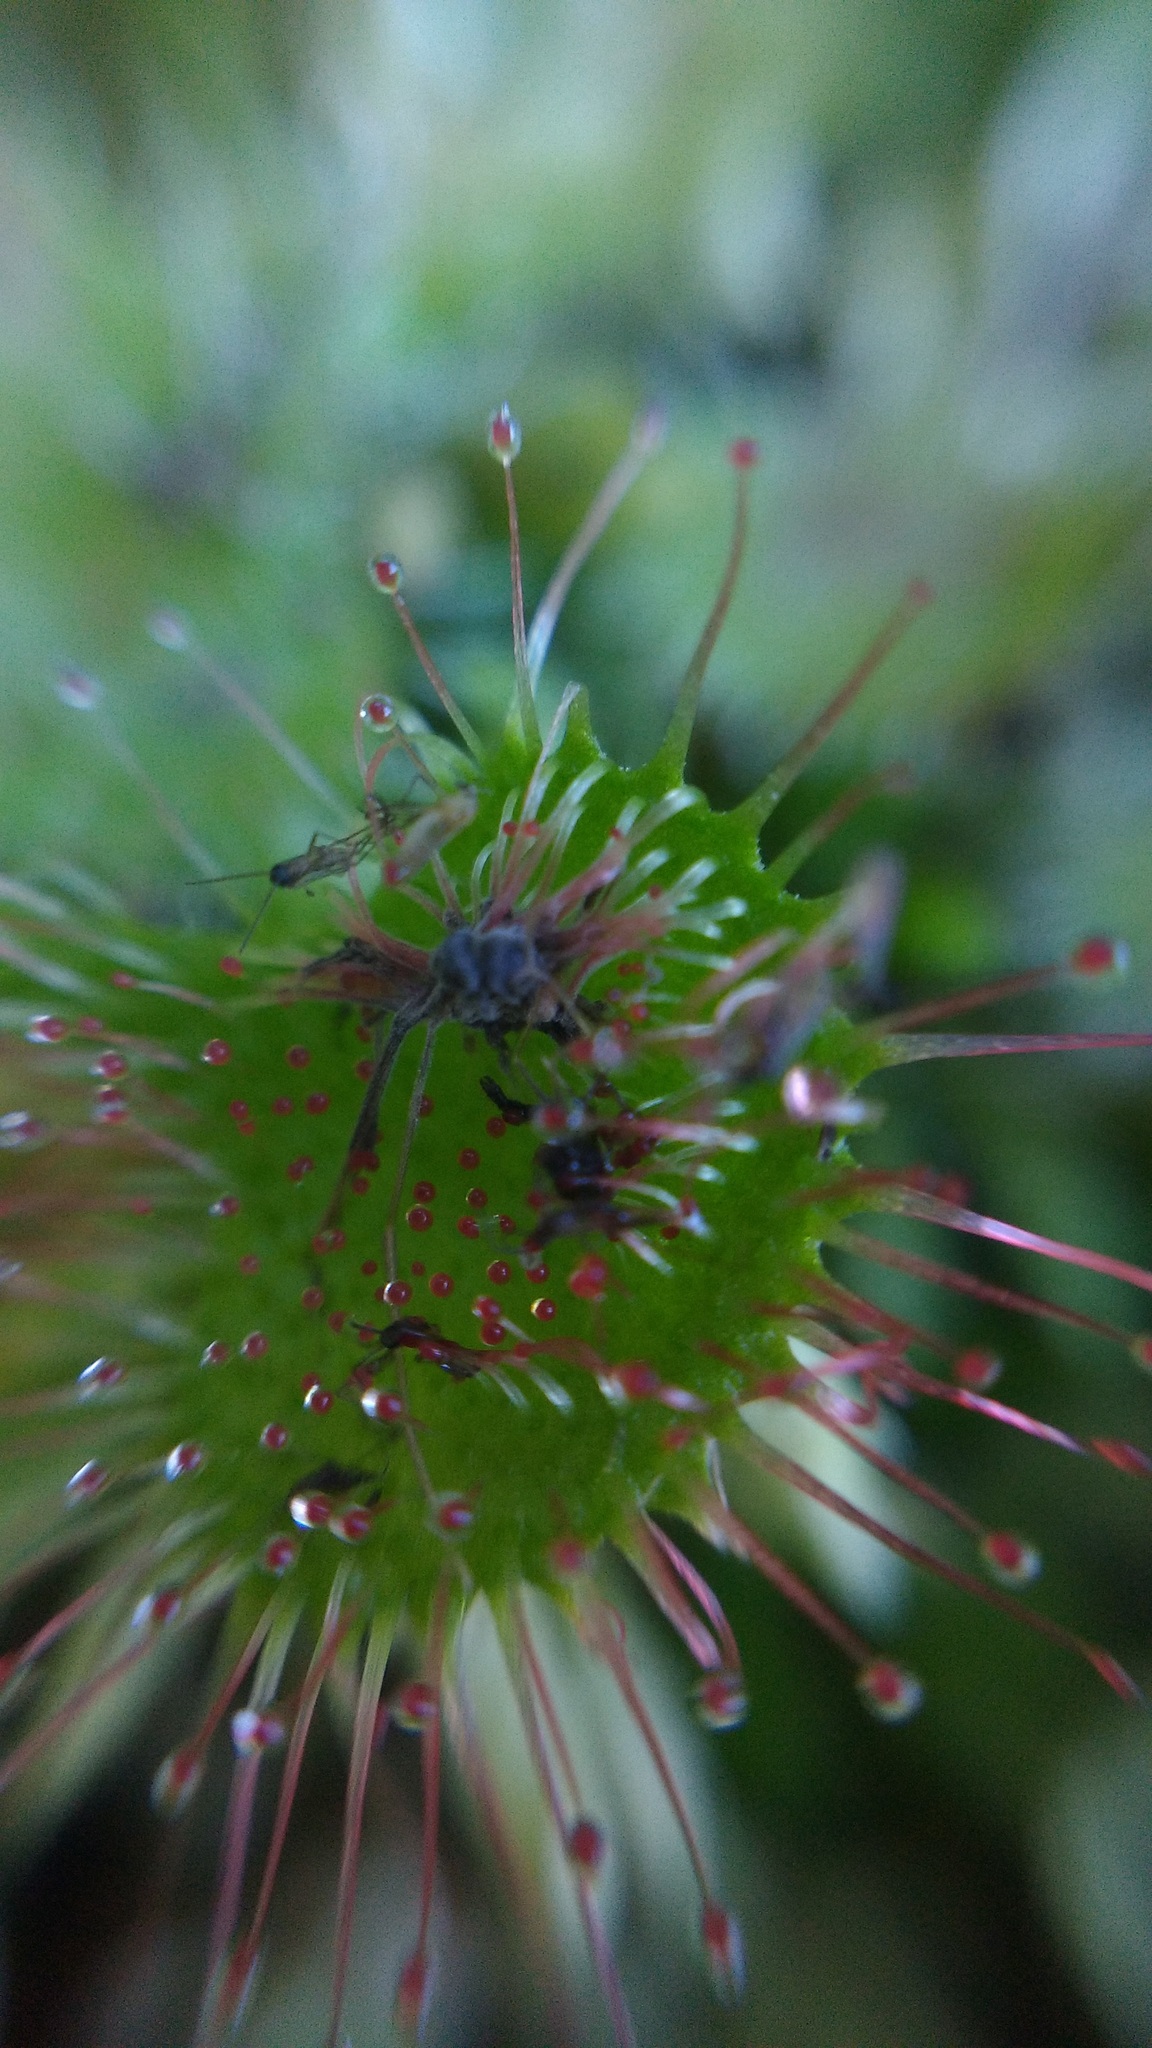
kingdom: Plantae
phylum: Tracheophyta
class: Magnoliopsida
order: Caryophyllales
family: Droseraceae
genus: Drosera
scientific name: Drosera rotundifolia
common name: Round-leaved sundew
